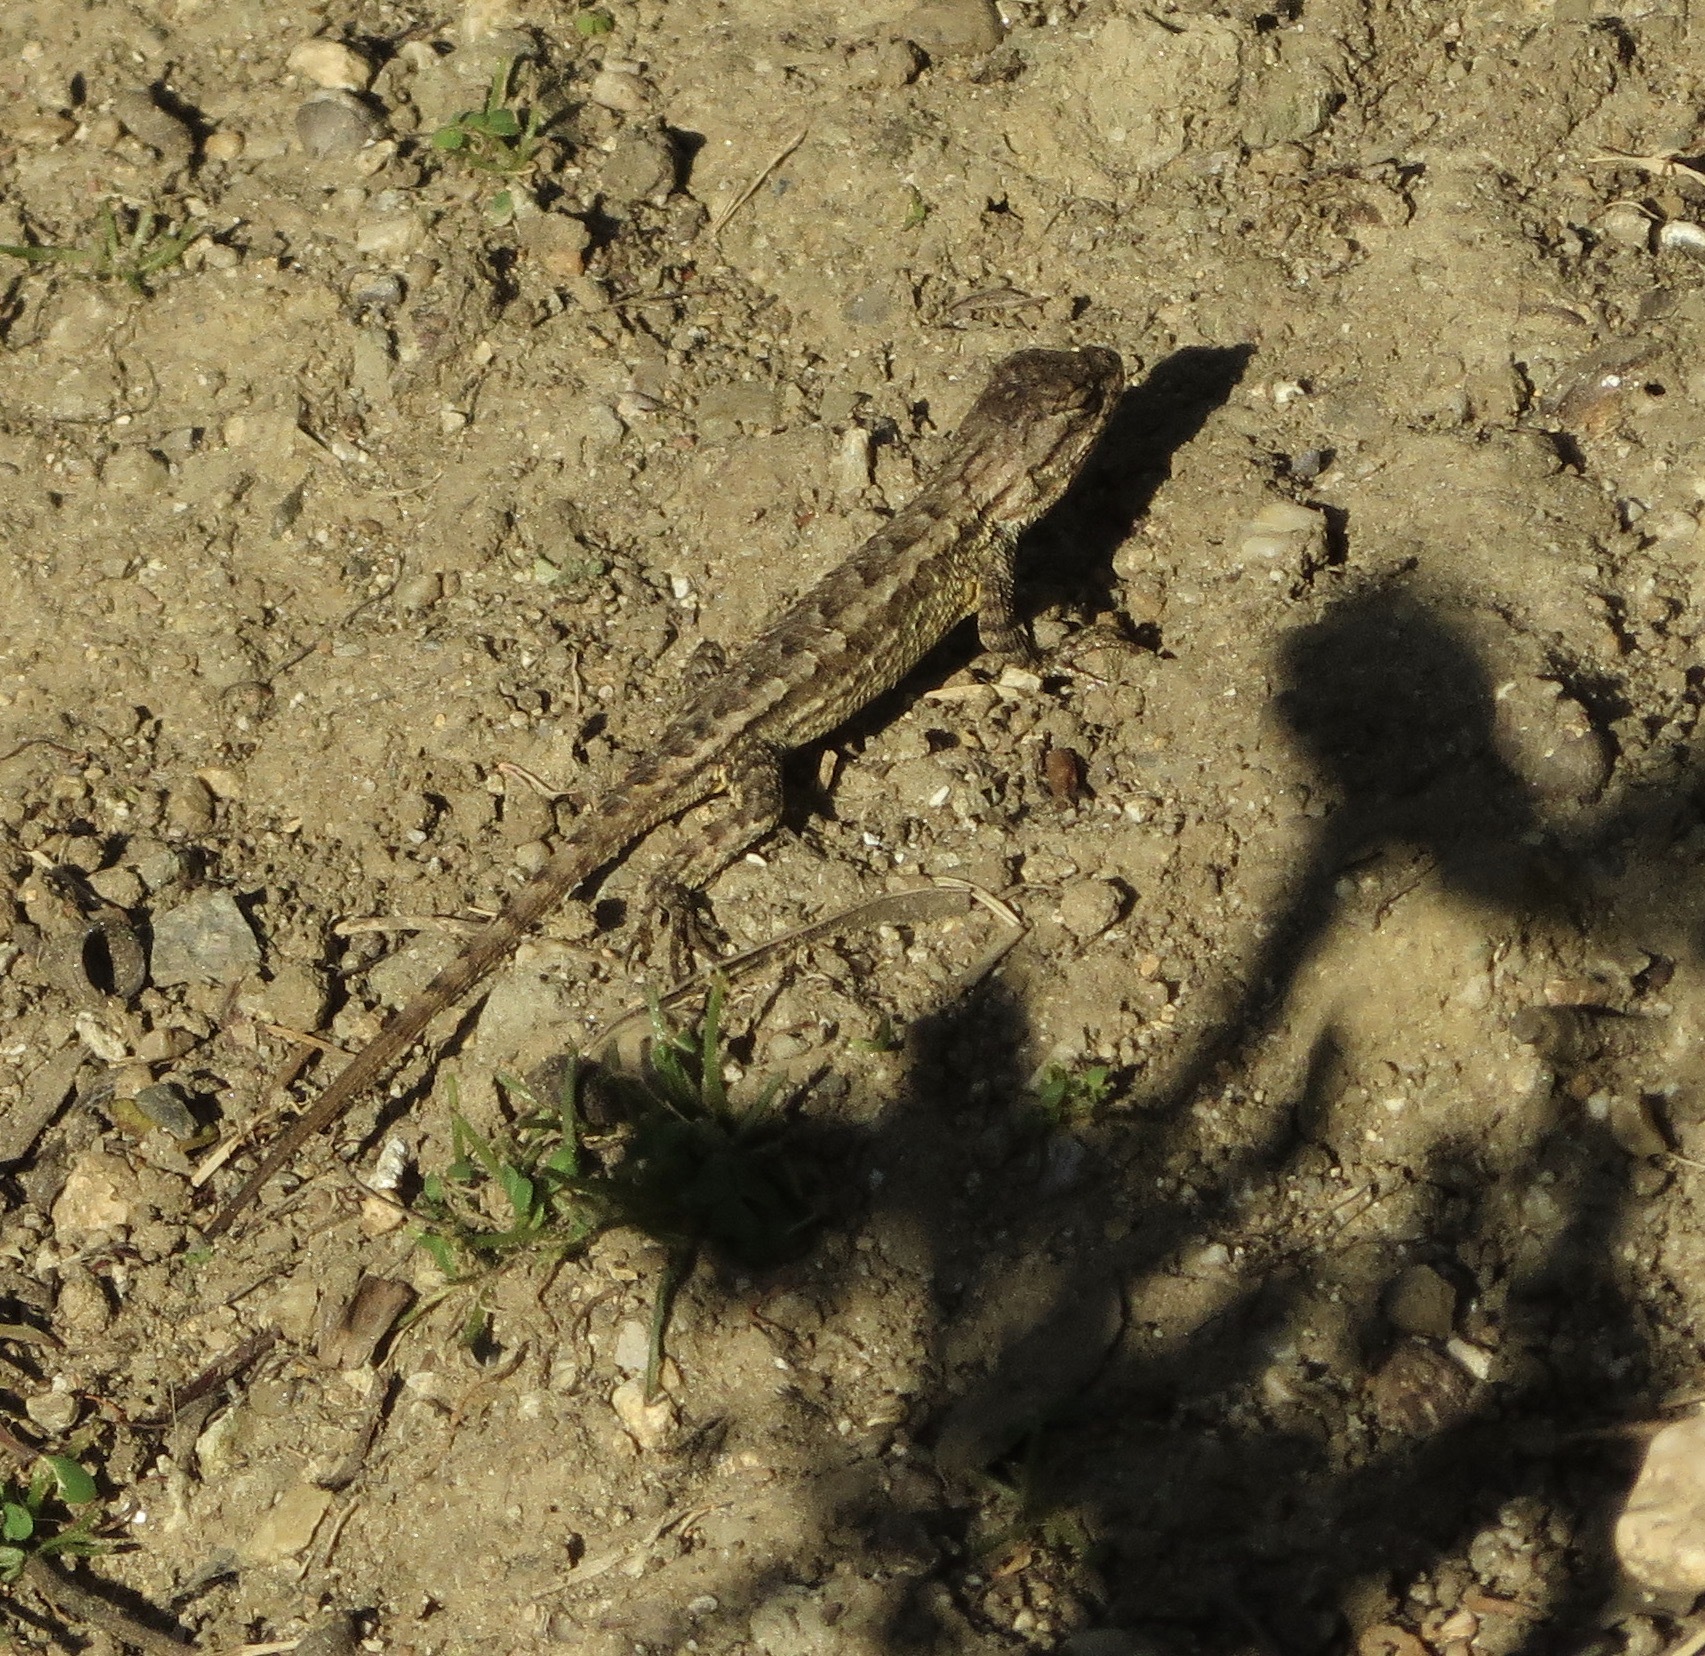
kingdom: Animalia
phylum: Chordata
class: Squamata
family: Phrynosomatidae
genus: Sceloporus
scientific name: Sceloporus occidentalis
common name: Western fence lizard
